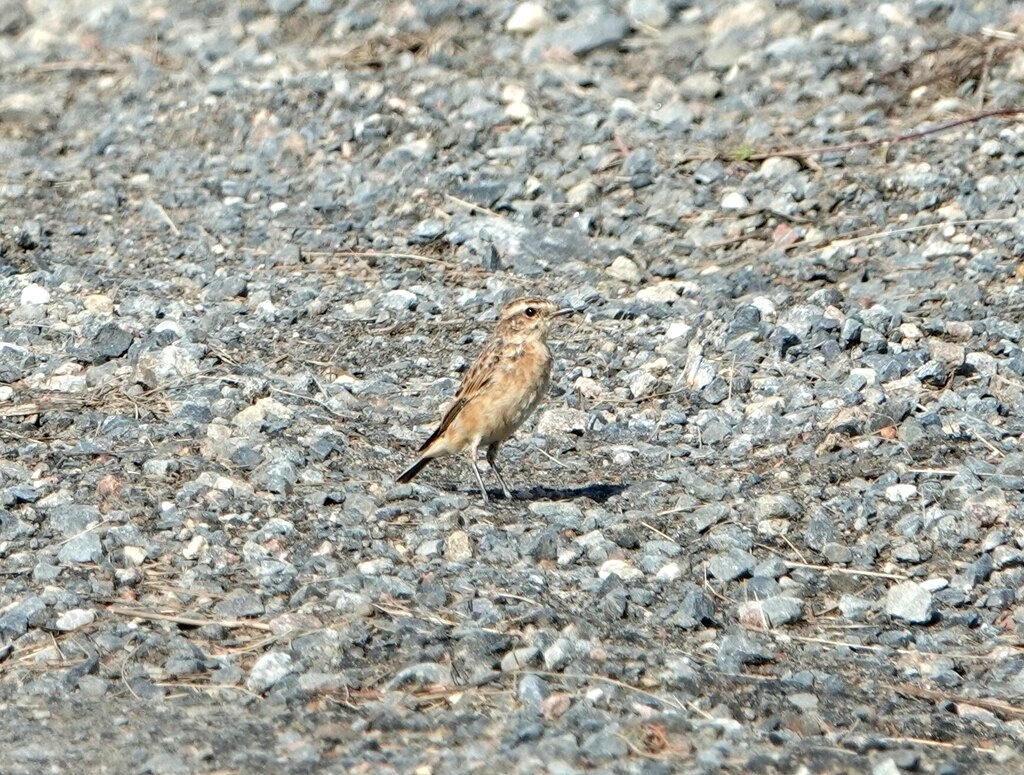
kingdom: Animalia
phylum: Chordata
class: Aves
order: Passeriformes
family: Muscicapidae
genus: Saxicola
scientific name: Saxicola rubetra
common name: Whinchat
